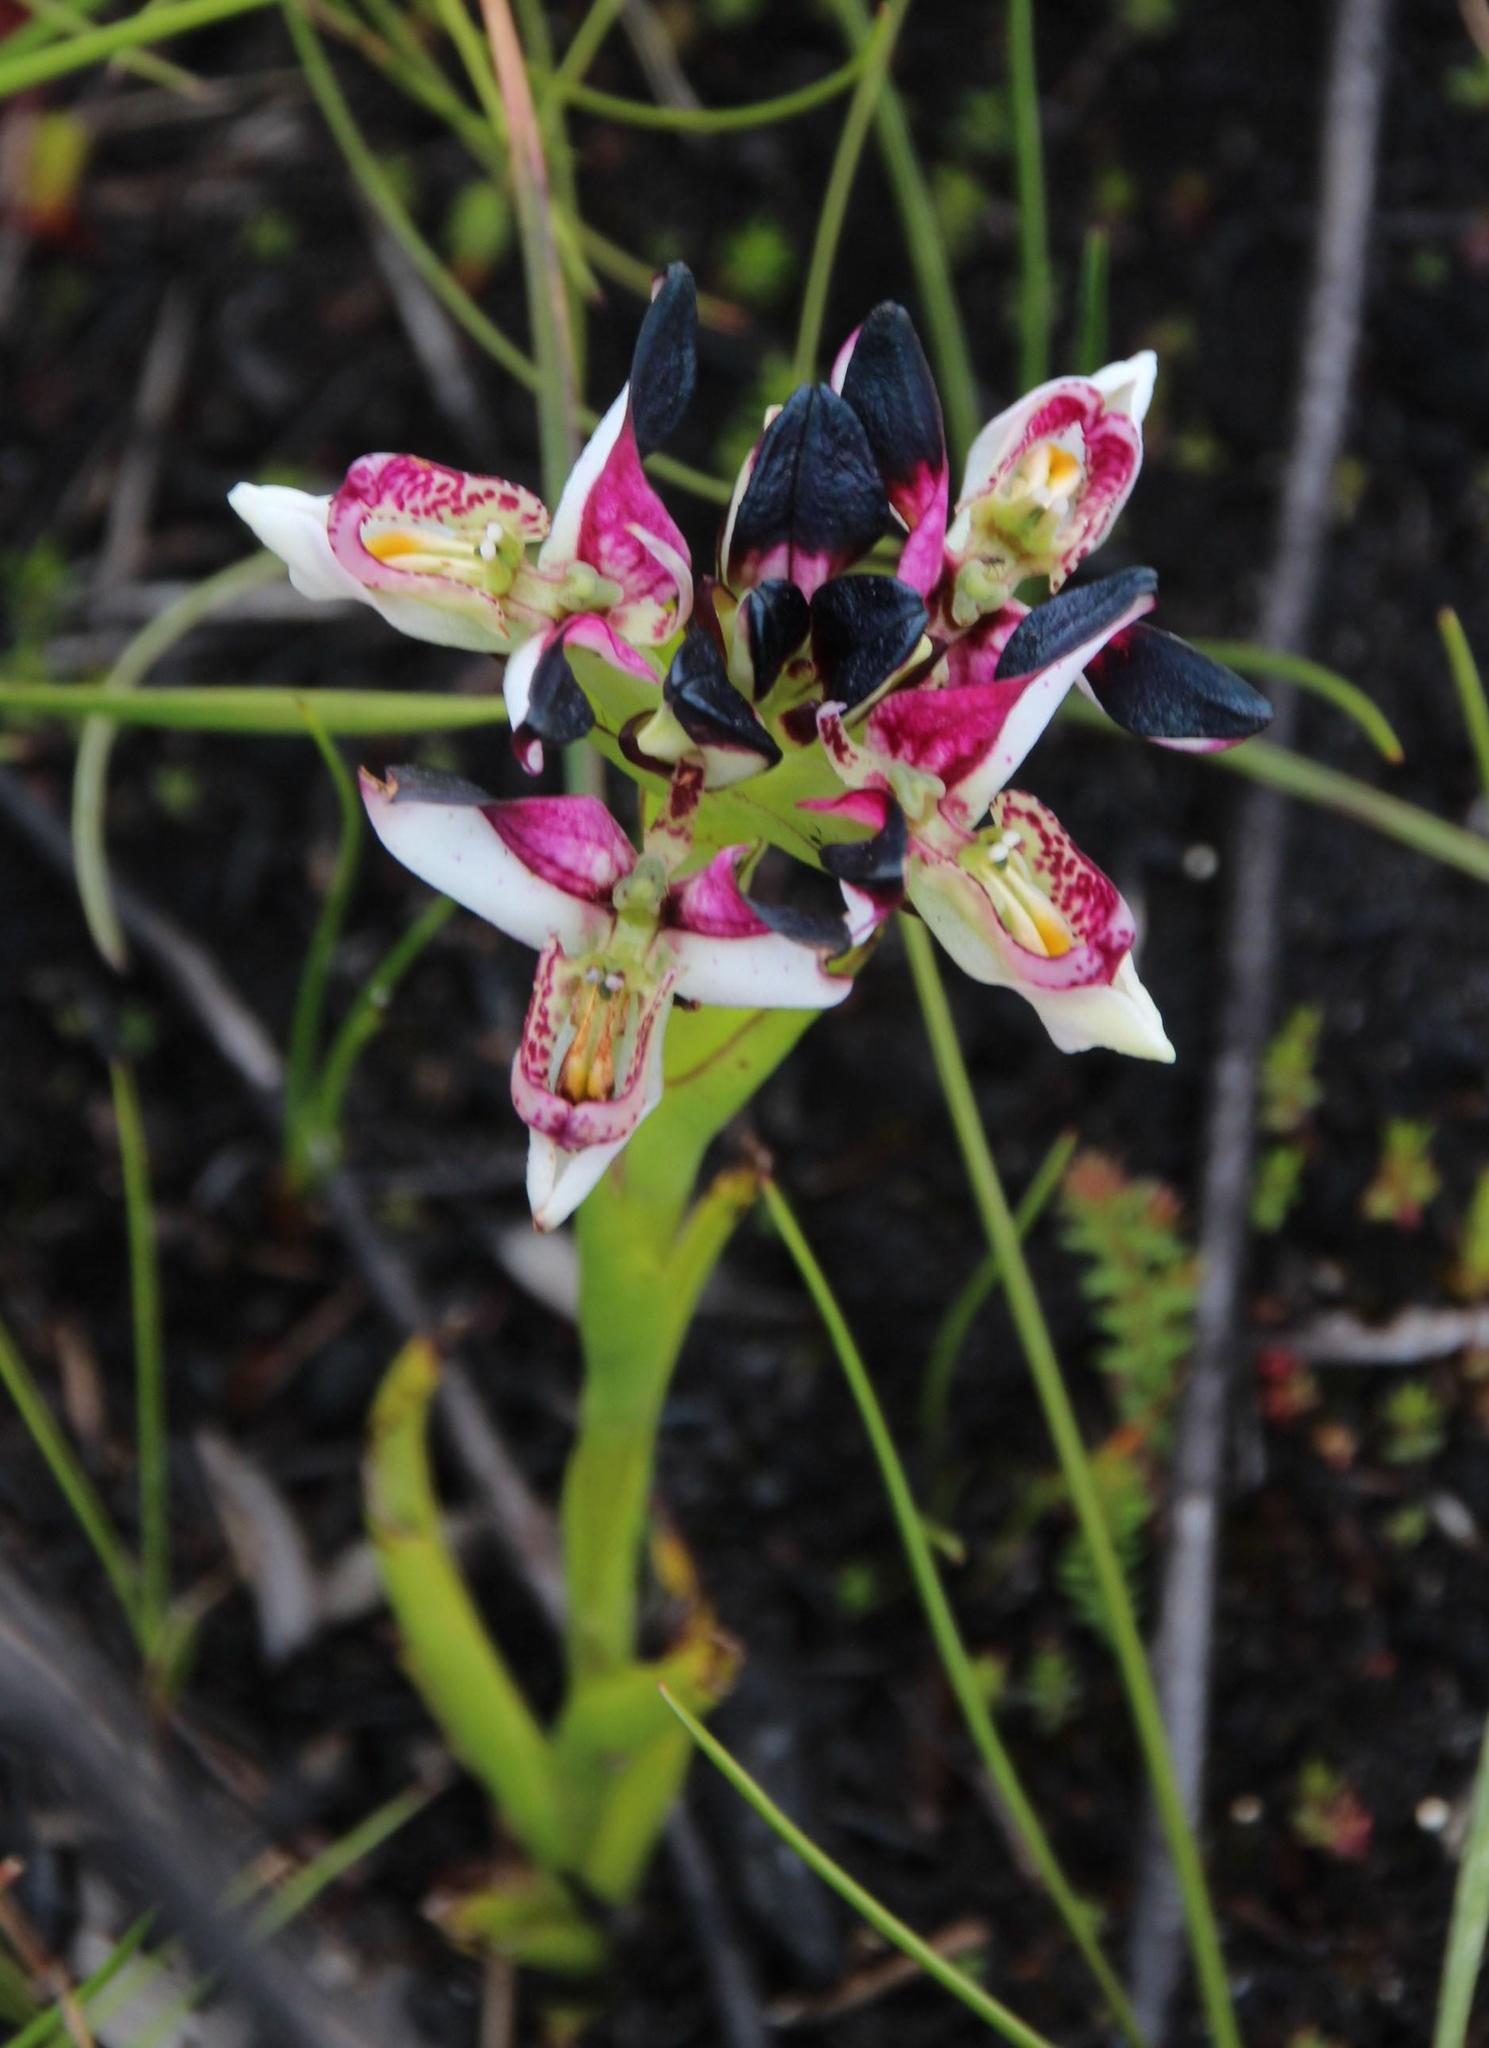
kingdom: Plantae
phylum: Tracheophyta
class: Liliopsida
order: Asparagales
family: Orchidaceae
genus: Disa
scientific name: Disa atricapilla
